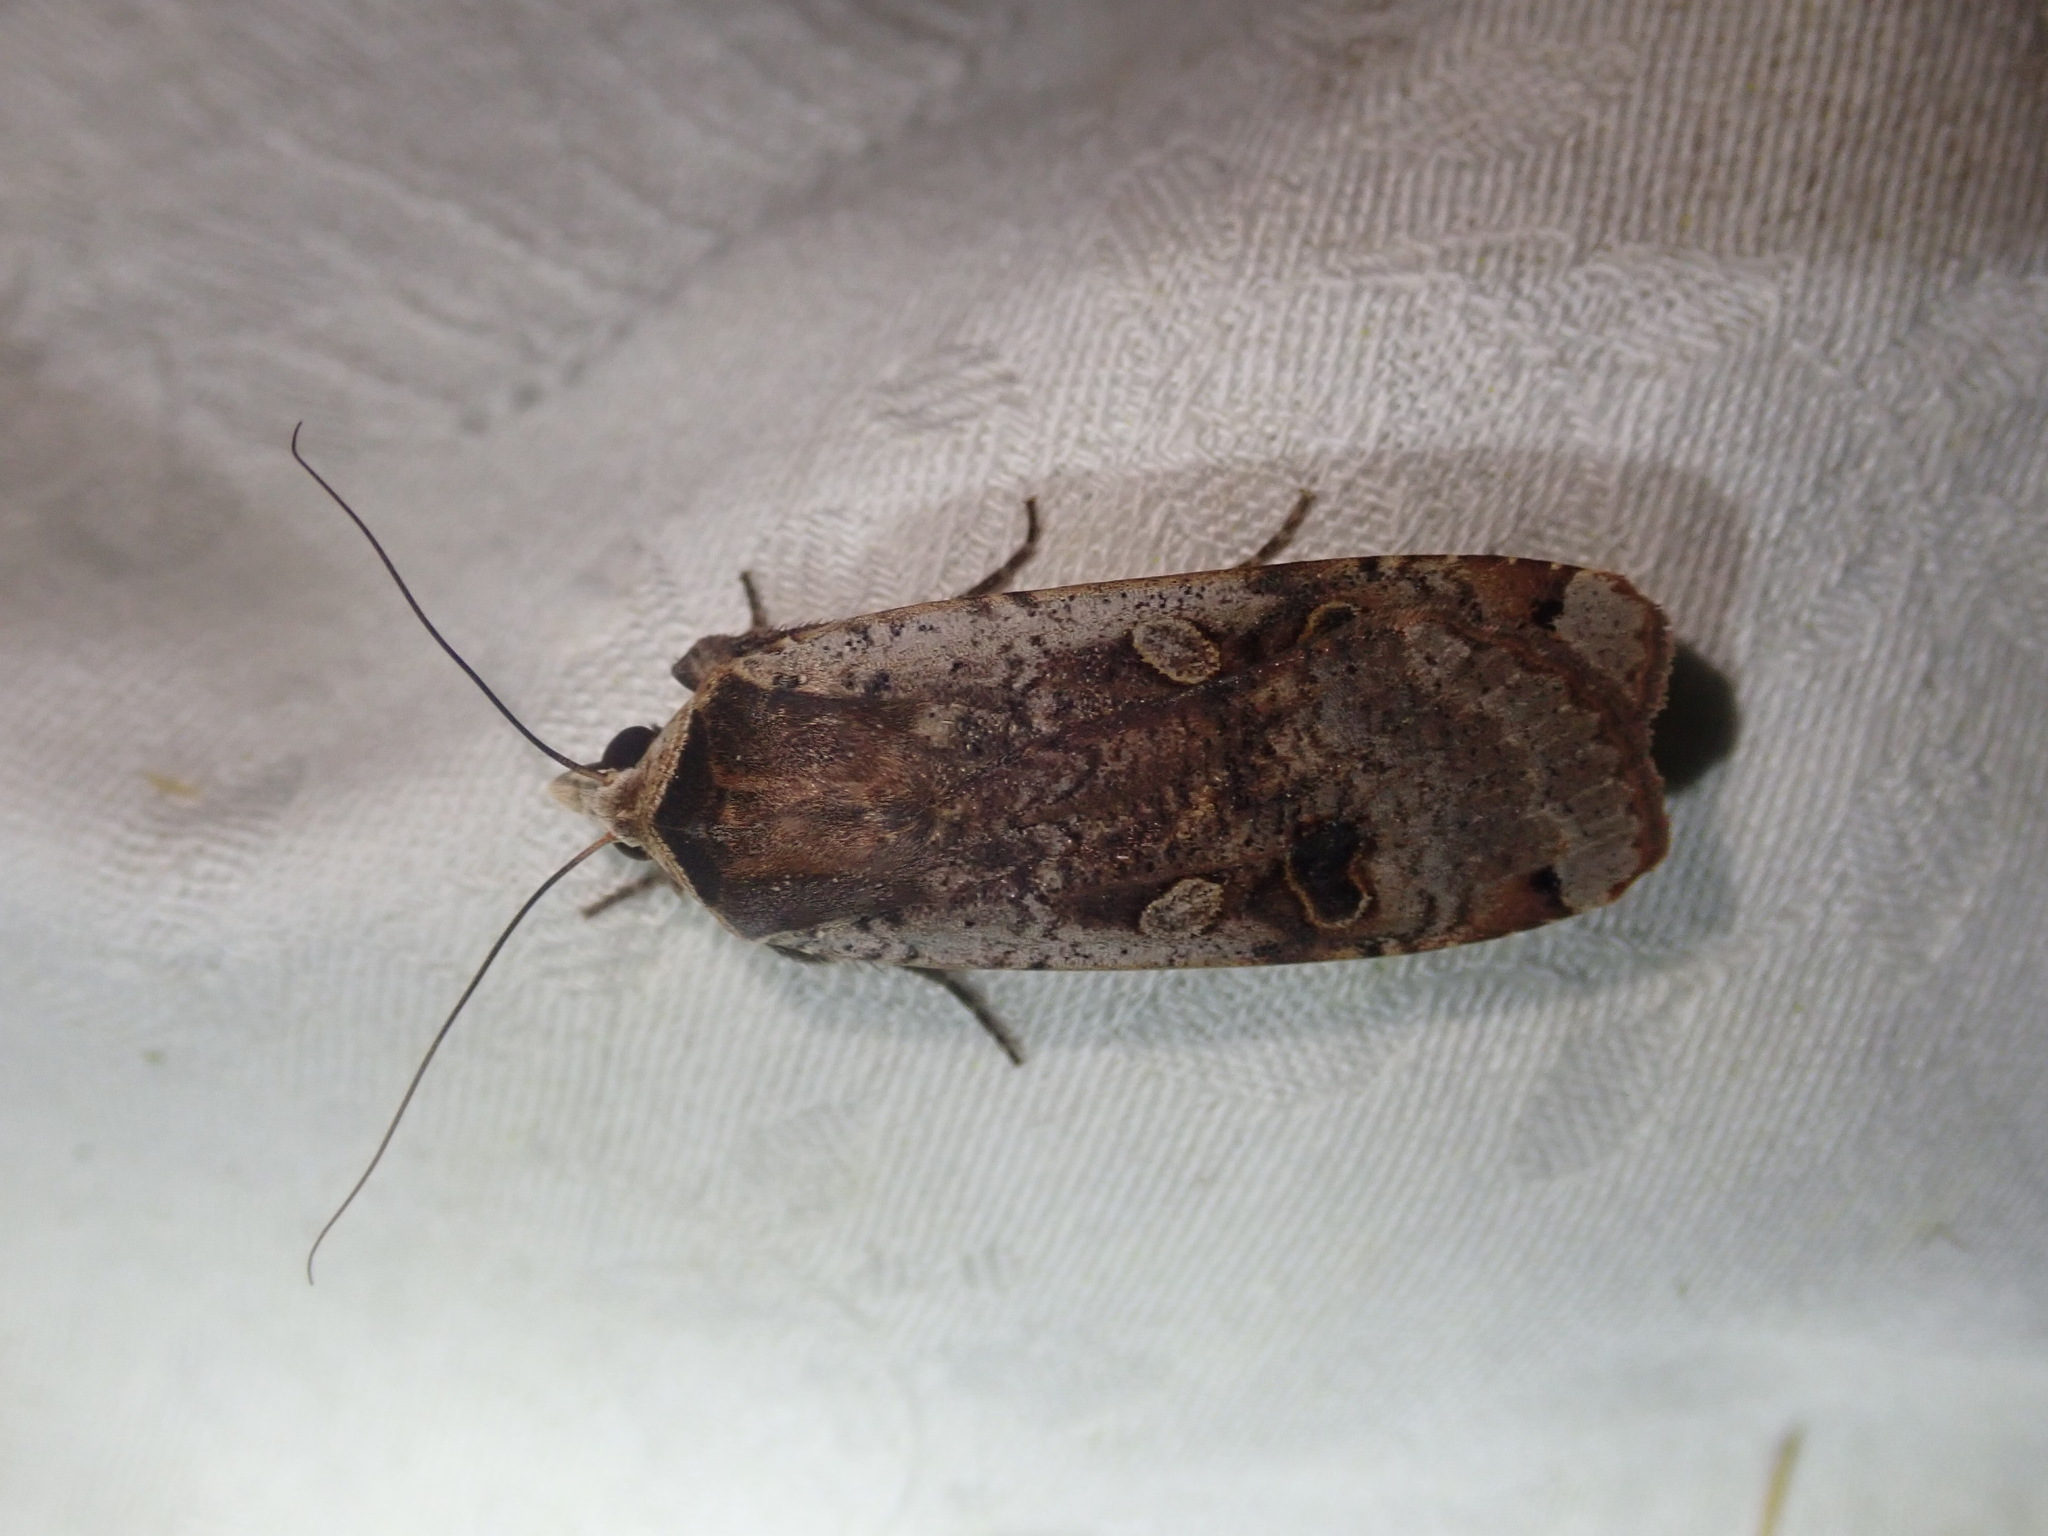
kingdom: Animalia
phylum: Arthropoda
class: Insecta
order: Lepidoptera
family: Noctuidae
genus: Noctua
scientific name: Noctua pronuba
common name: Large yellow underwing
